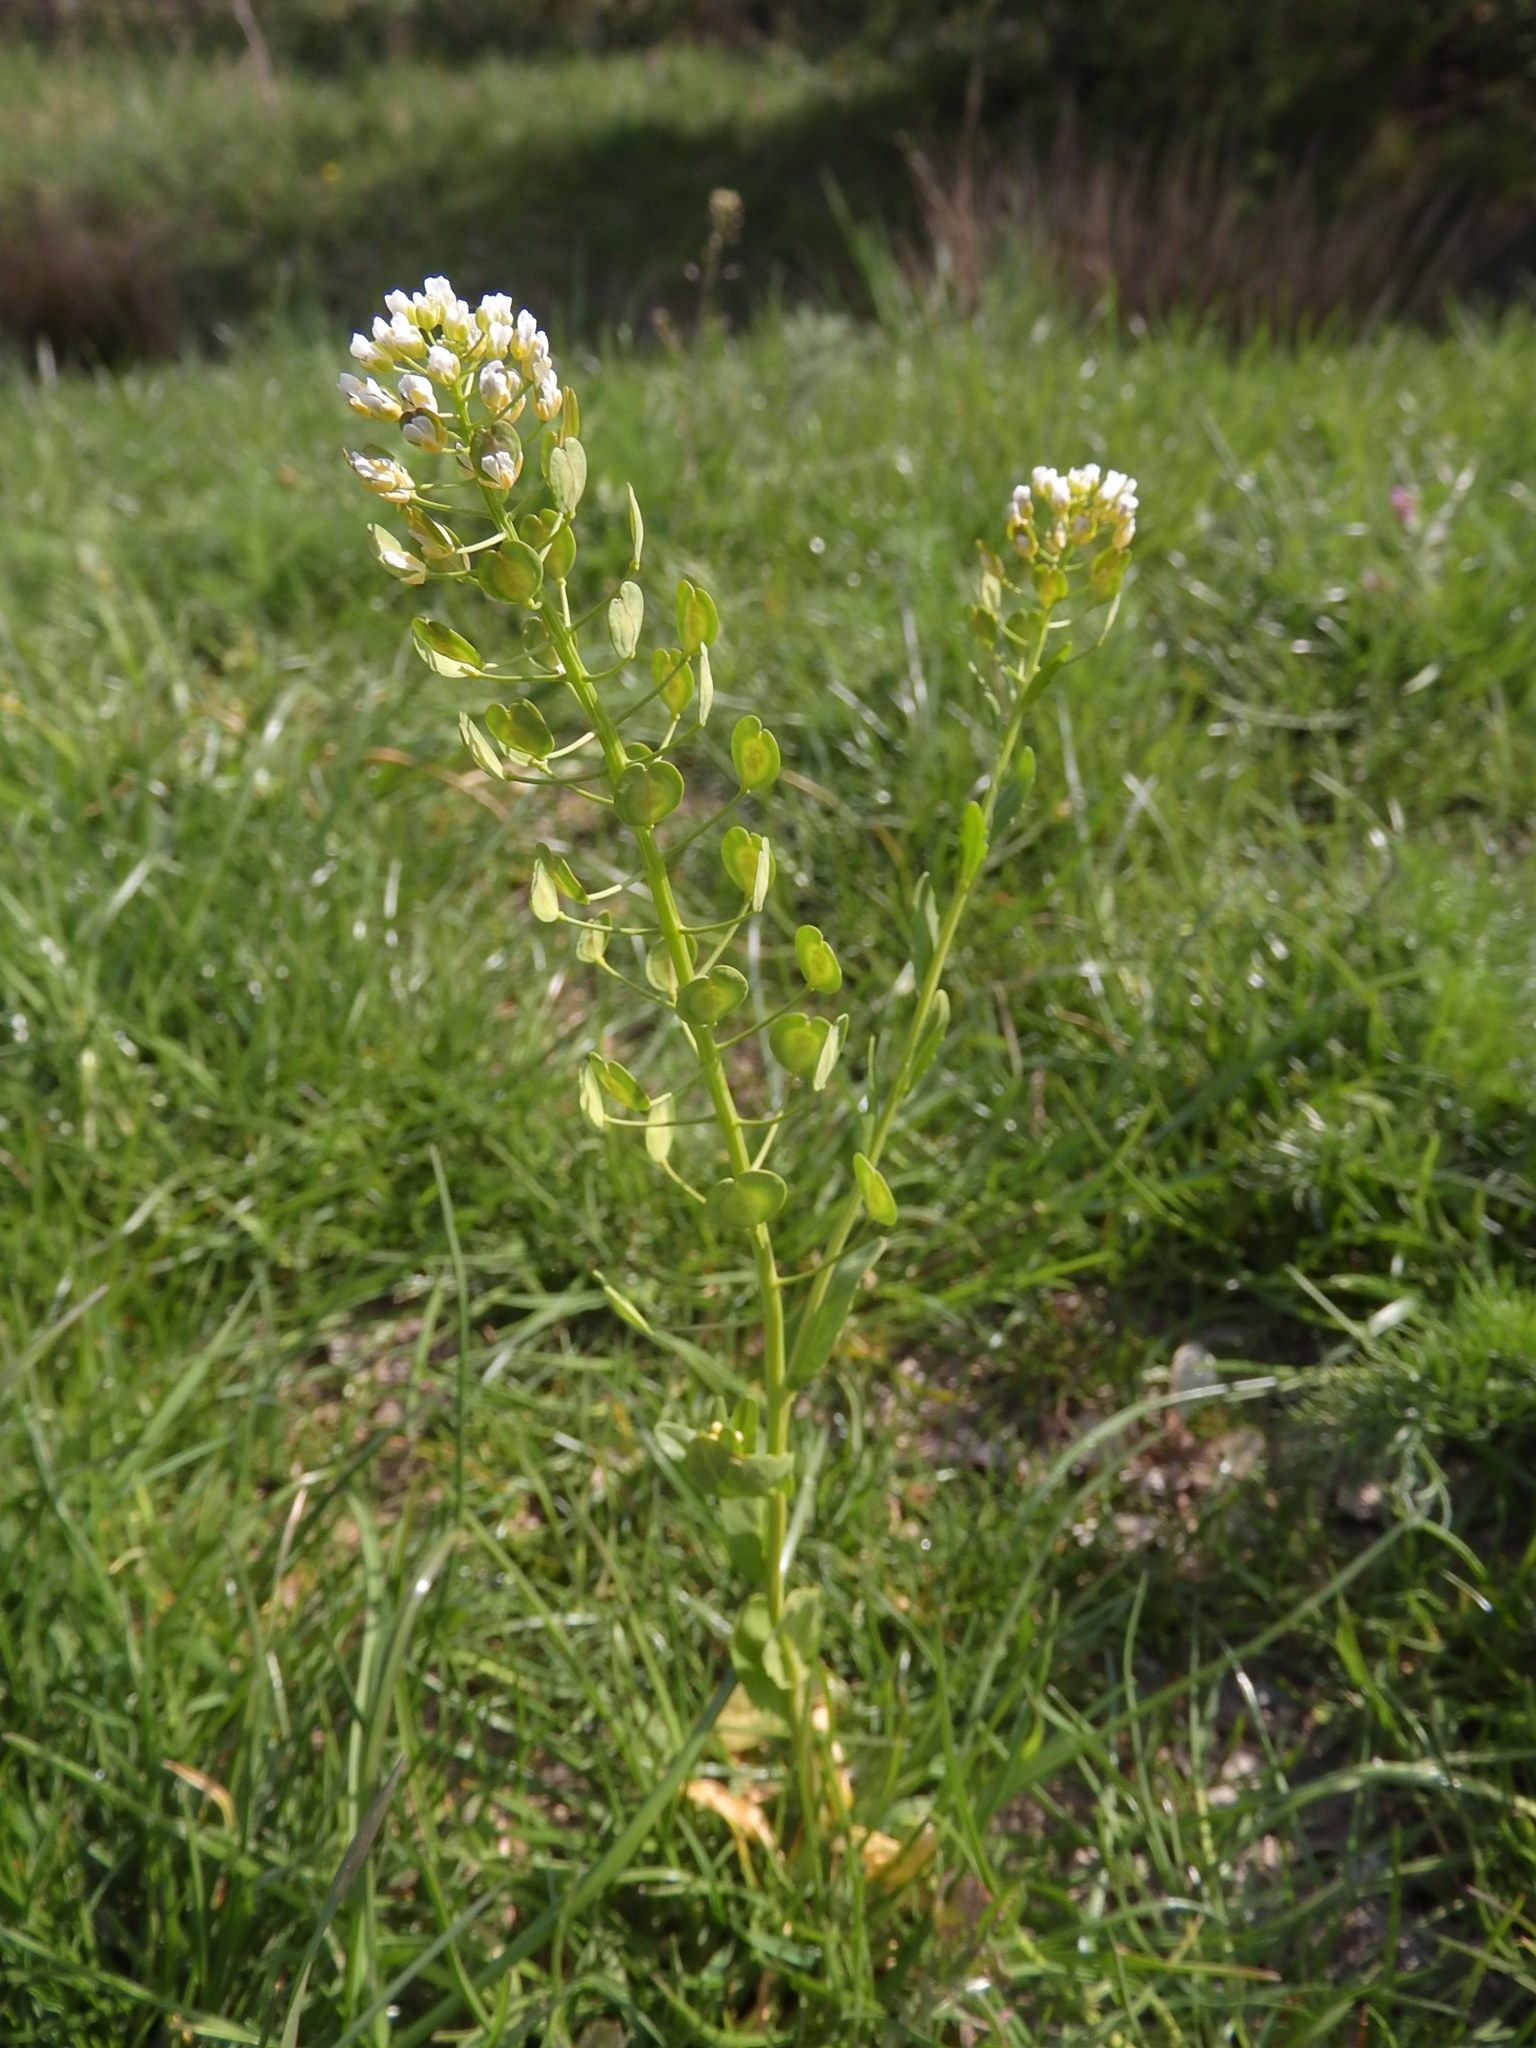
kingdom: Plantae
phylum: Tracheophyta
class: Magnoliopsida
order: Brassicales
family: Brassicaceae
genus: Thlaspi
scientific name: Thlaspi arvense
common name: Field pennycress
